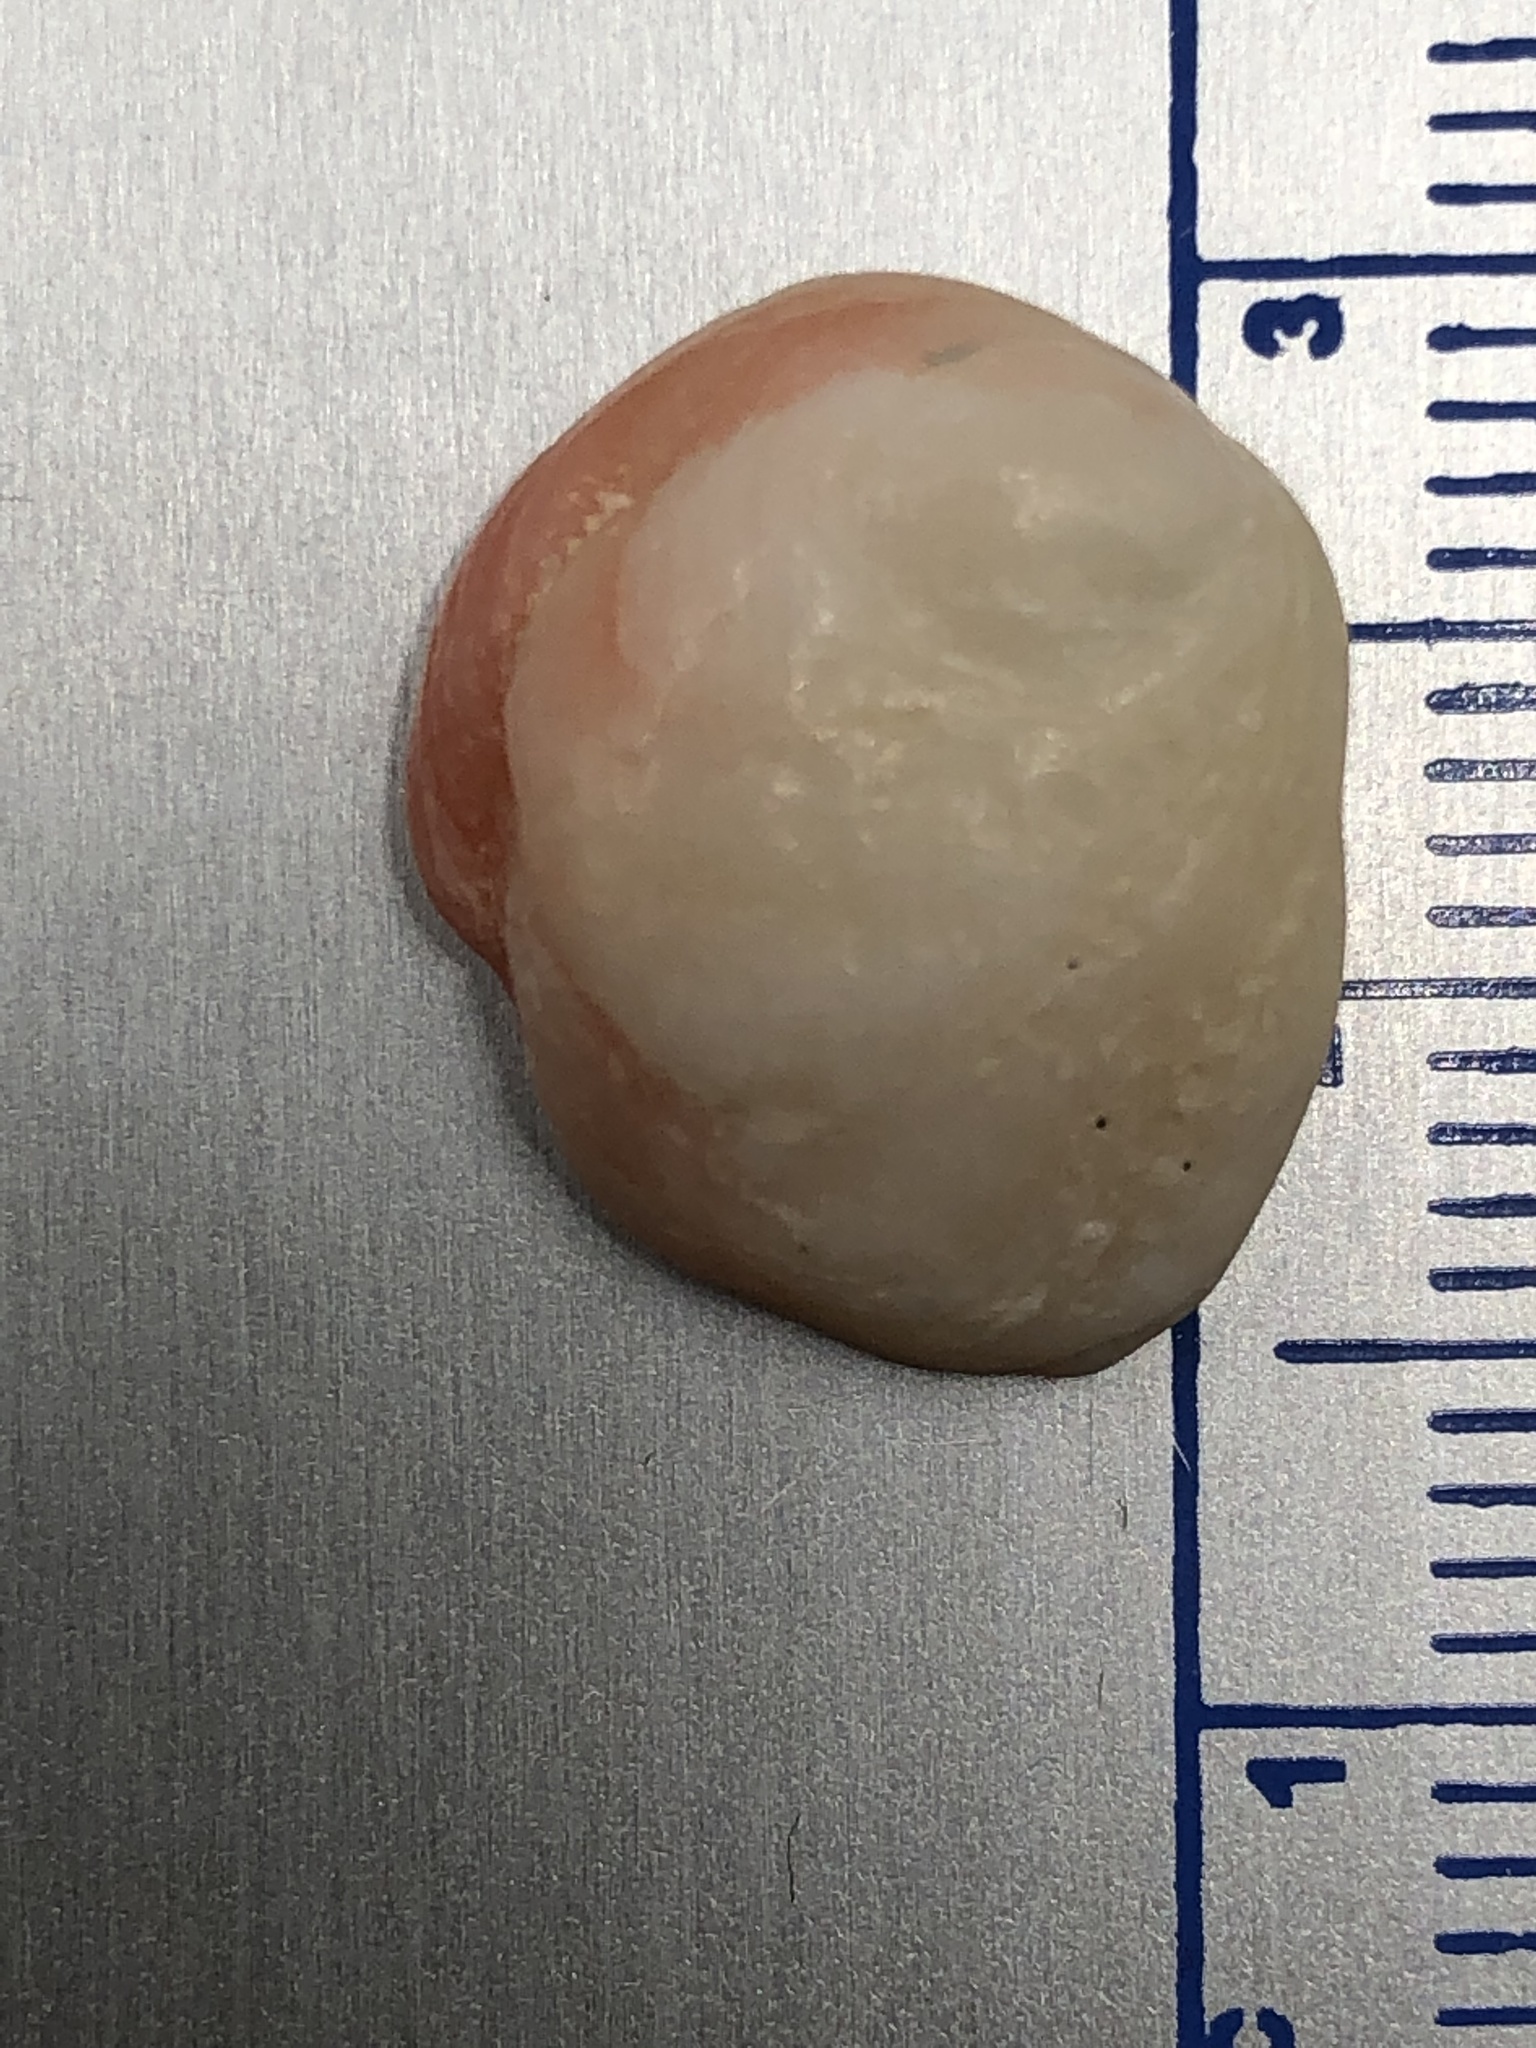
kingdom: Animalia
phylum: Mollusca
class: Bivalvia
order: Venerida
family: Chamidae
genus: Chama
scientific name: Chama congregata
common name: Corrugate jewelbox
